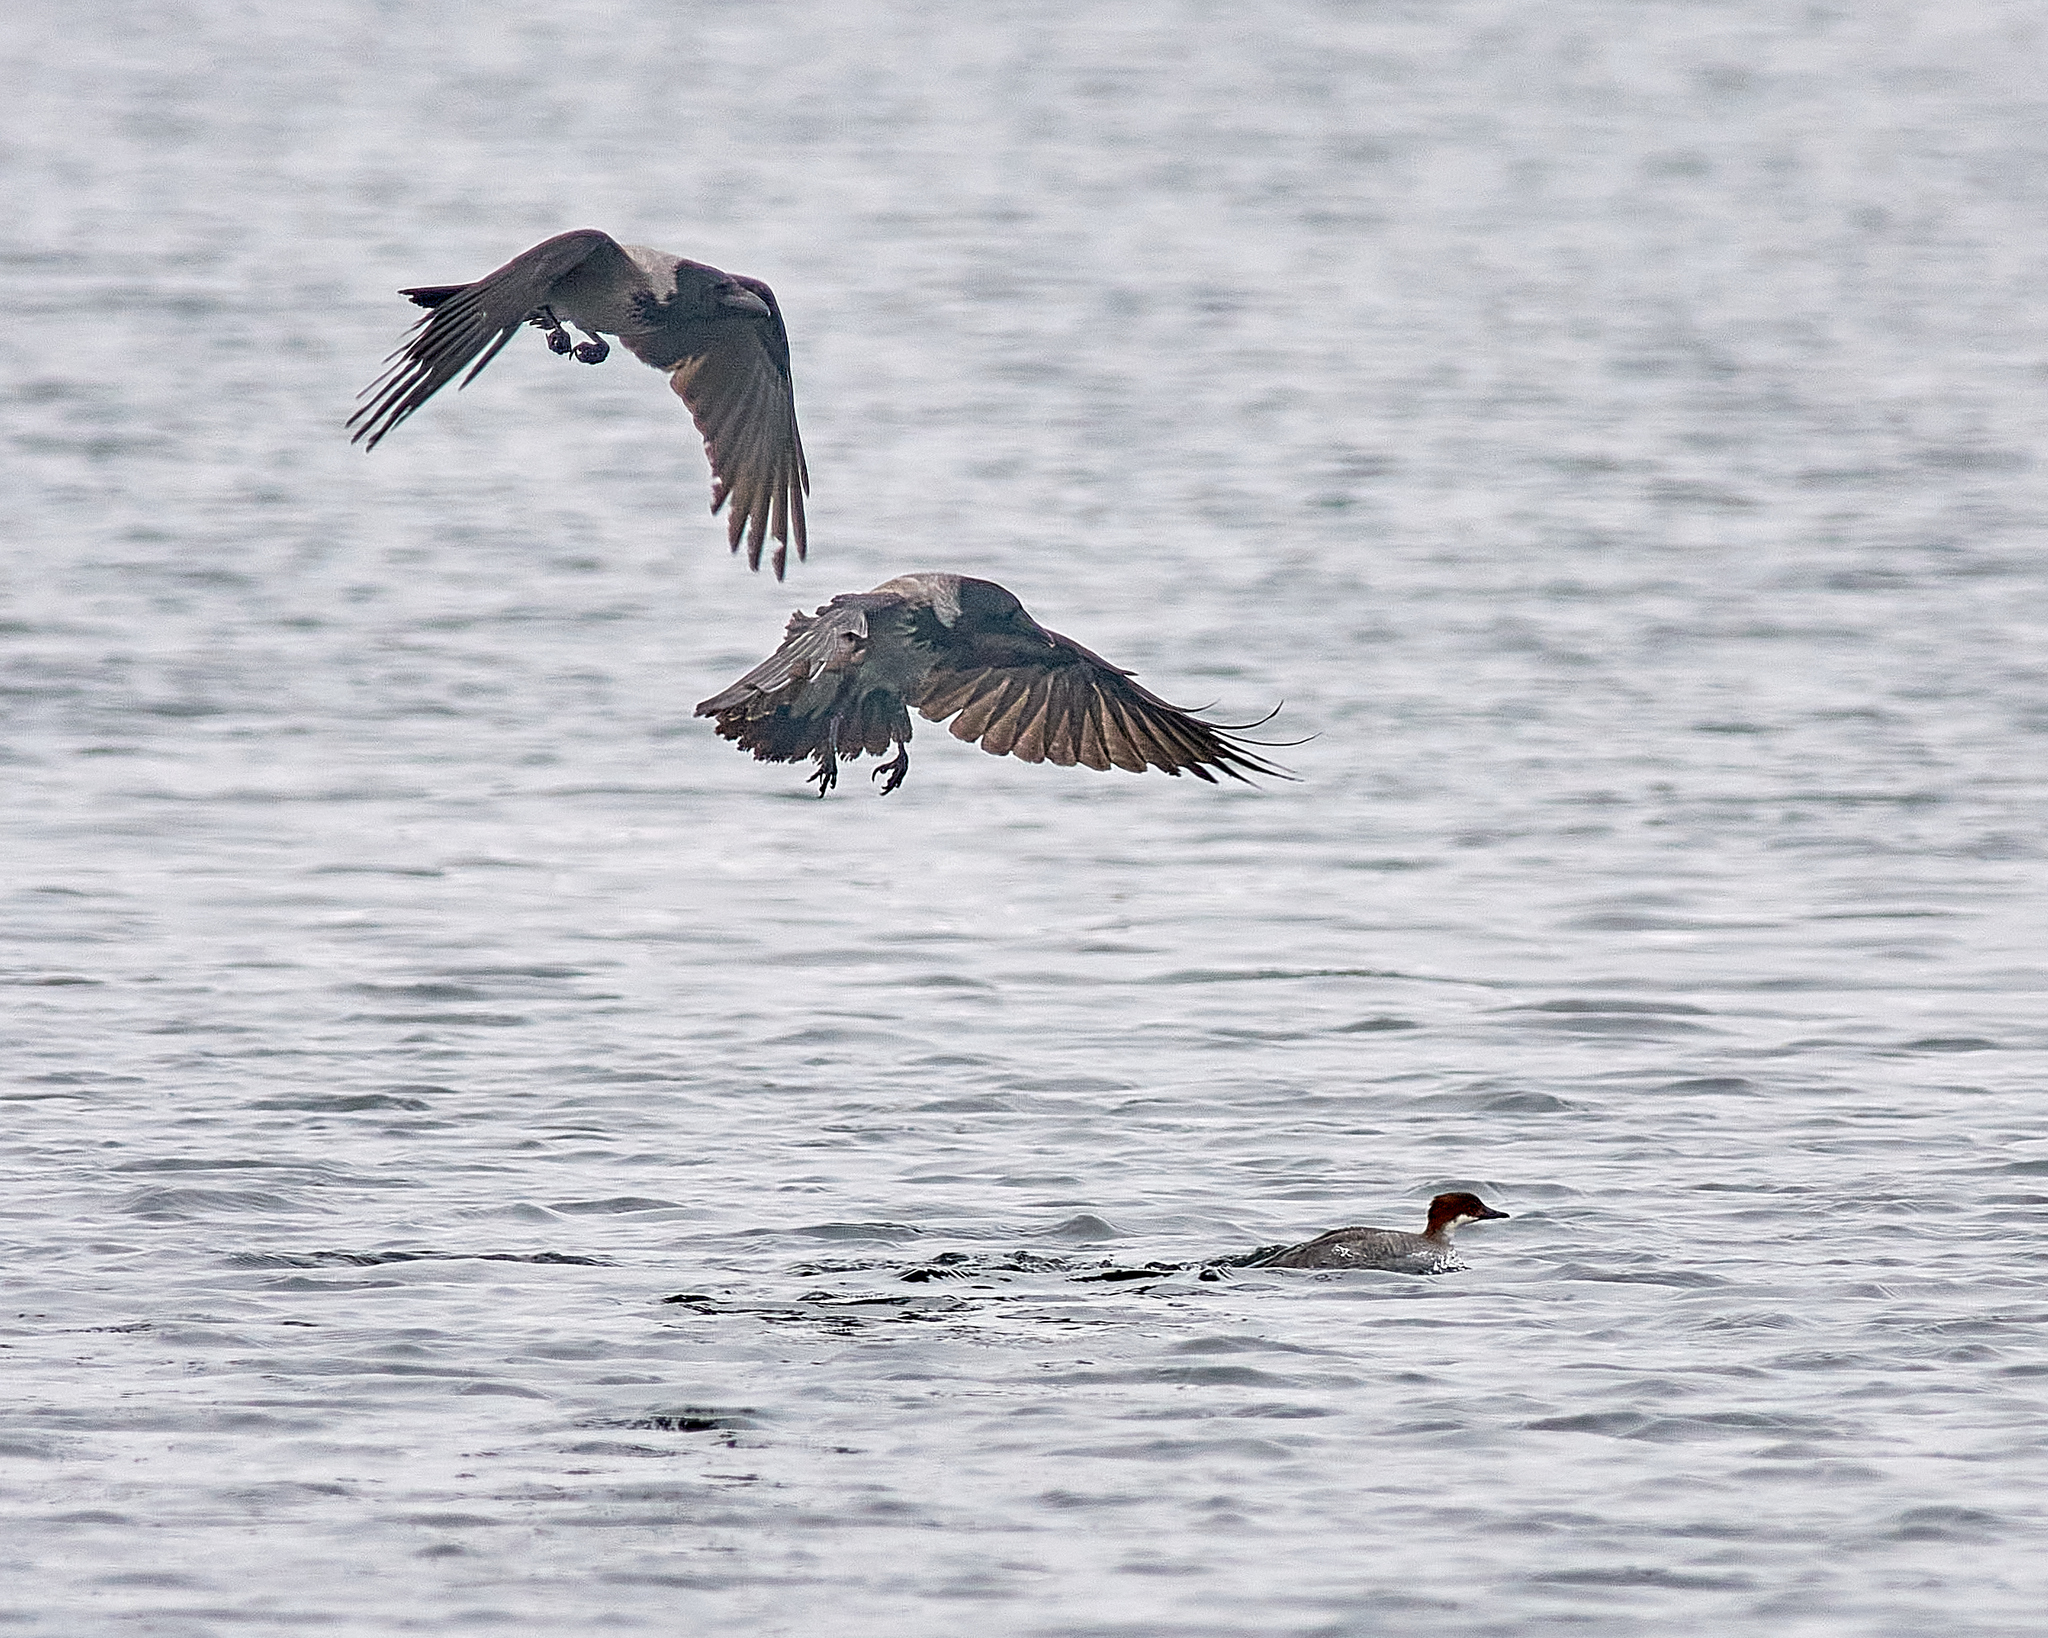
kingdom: Animalia
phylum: Chordata
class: Aves
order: Passeriformes
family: Corvidae
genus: Corvus
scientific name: Corvus cornix
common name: Hooded crow
